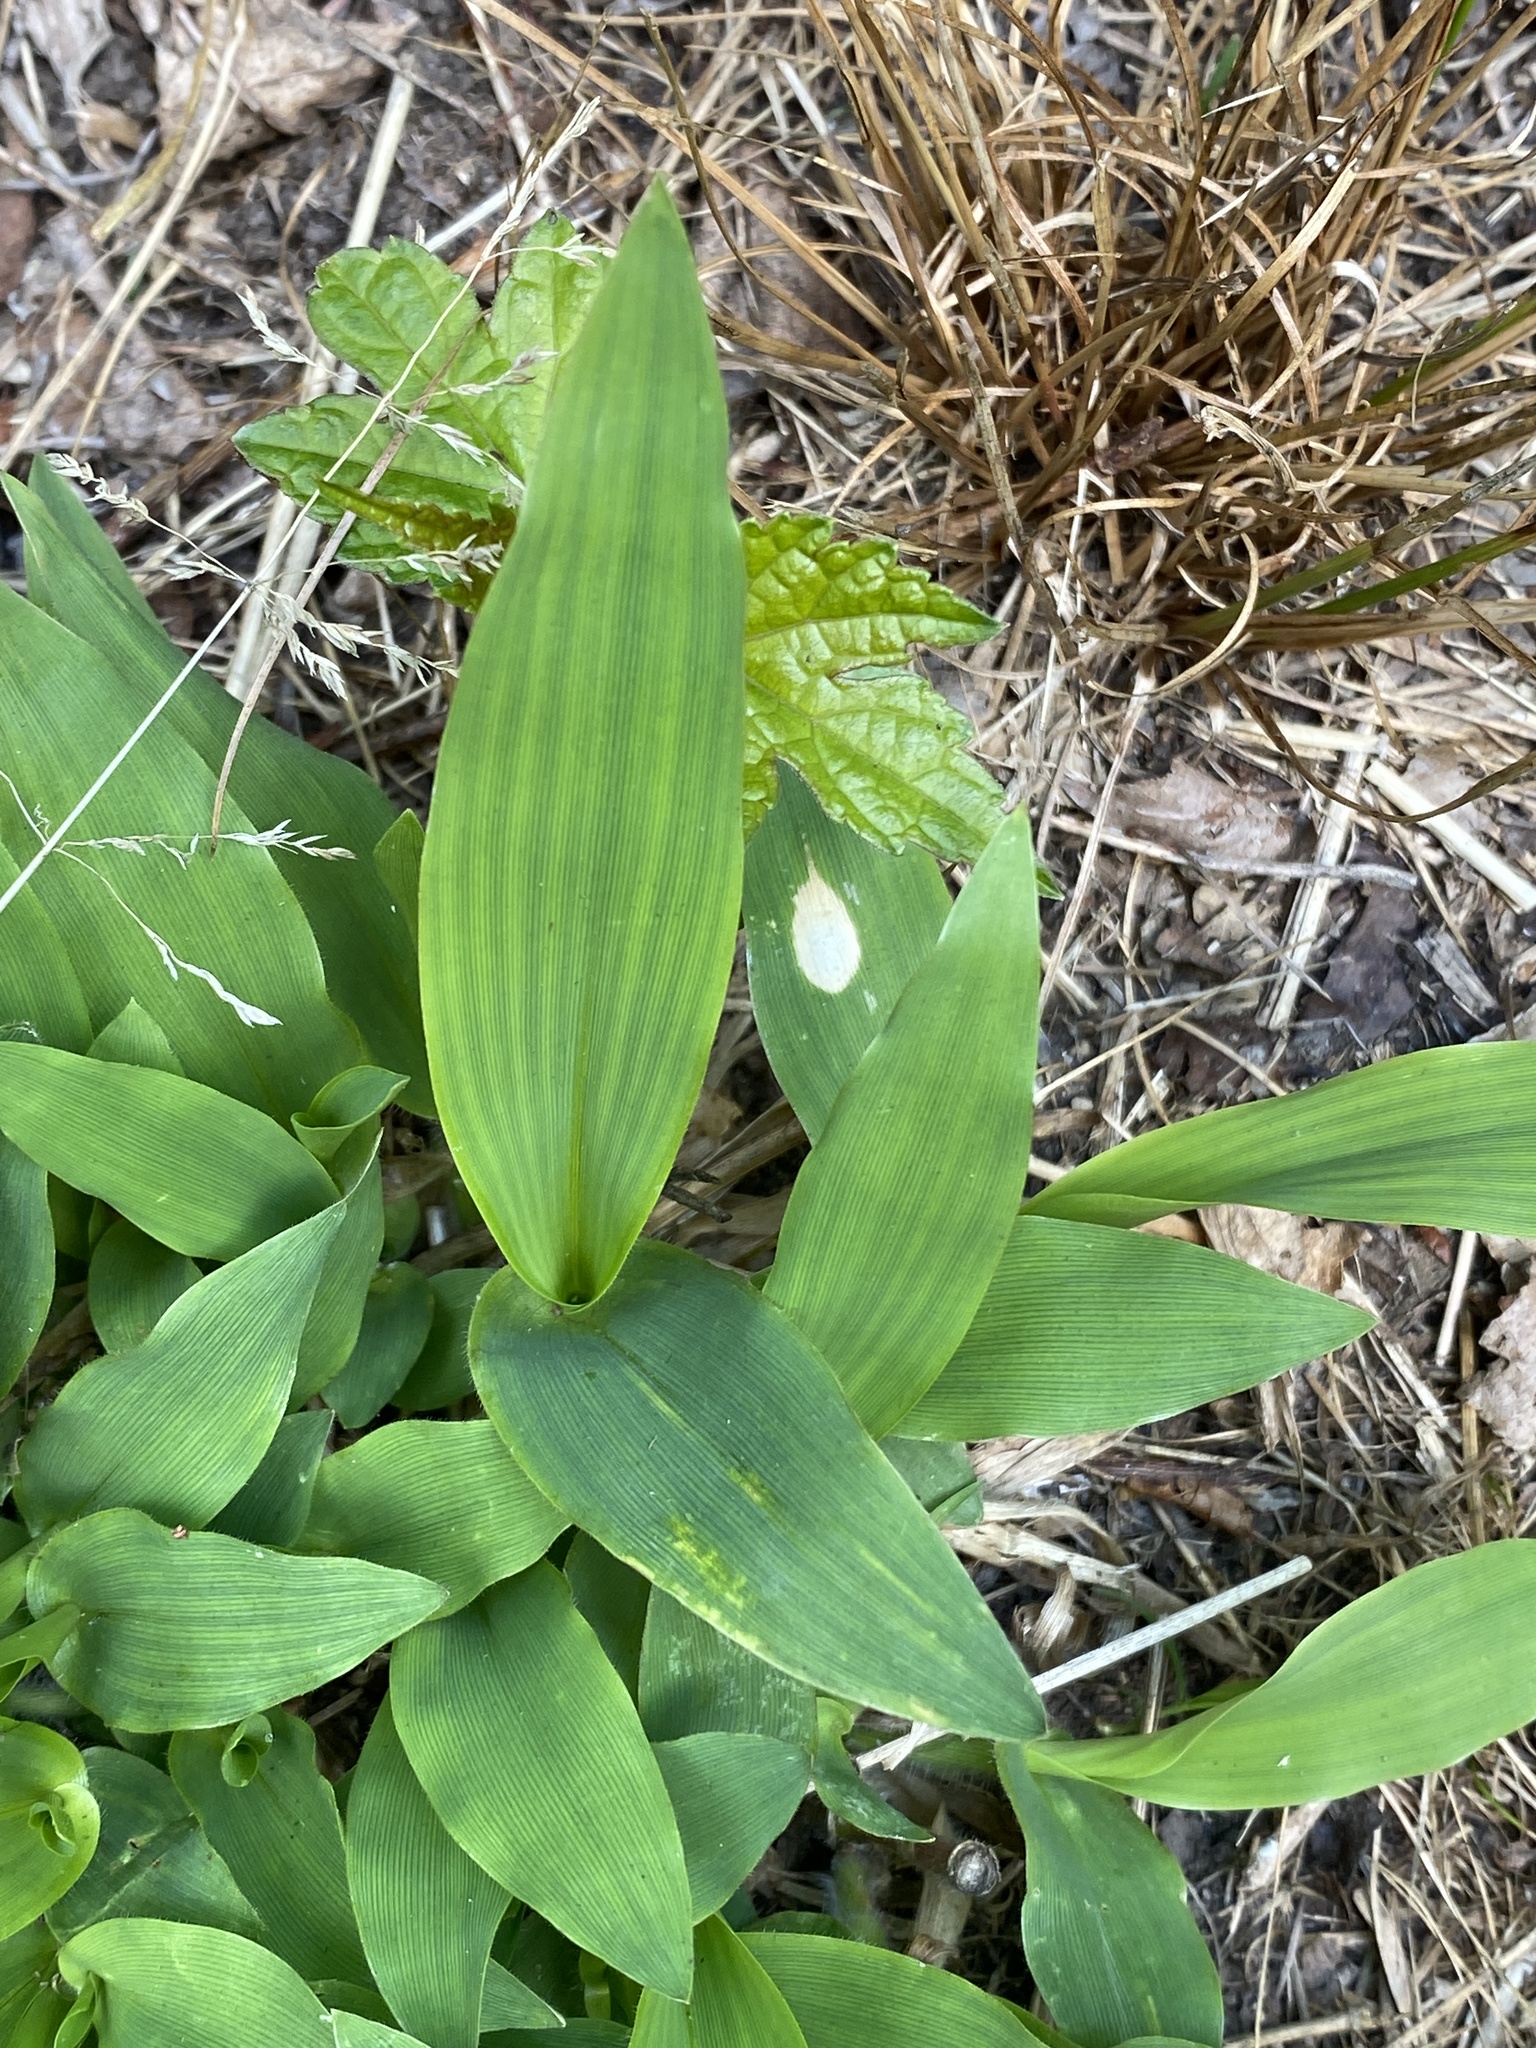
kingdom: Plantae
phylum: Tracheophyta
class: Liliopsida
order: Poales
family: Poaceae
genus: Dichanthelium
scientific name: Dichanthelium clandestinum
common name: Deer-tongue grass
